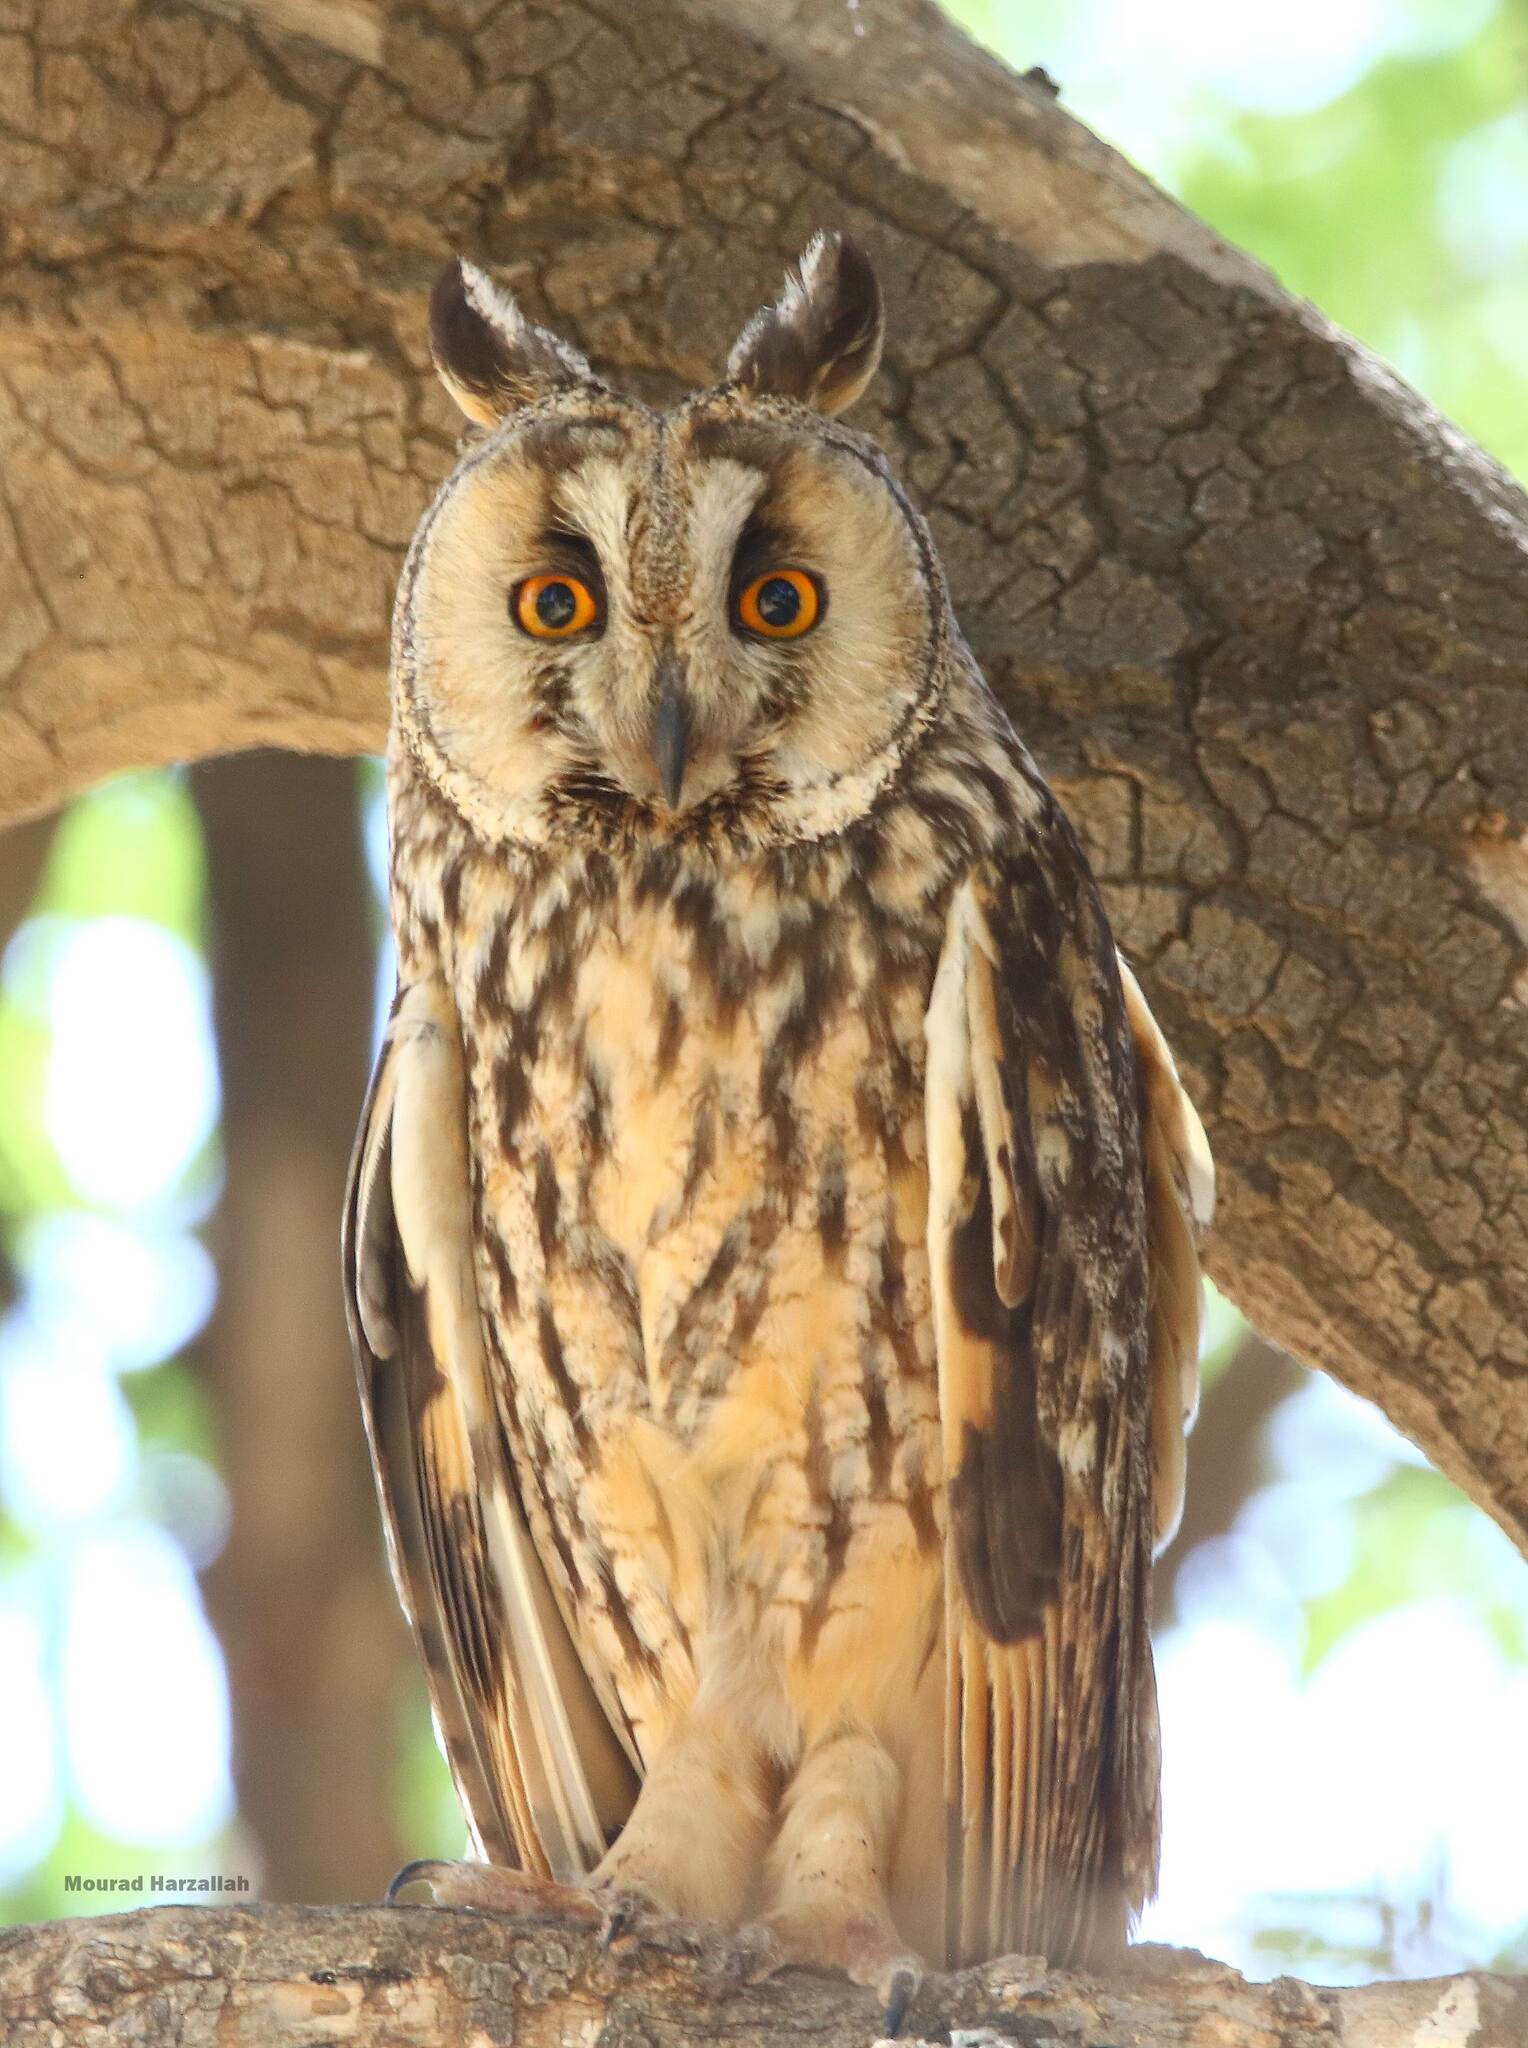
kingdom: Animalia
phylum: Chordata
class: Aves
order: Strigiformes
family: Strigidae
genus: Asio
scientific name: Asio otus
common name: Long-eared owl
